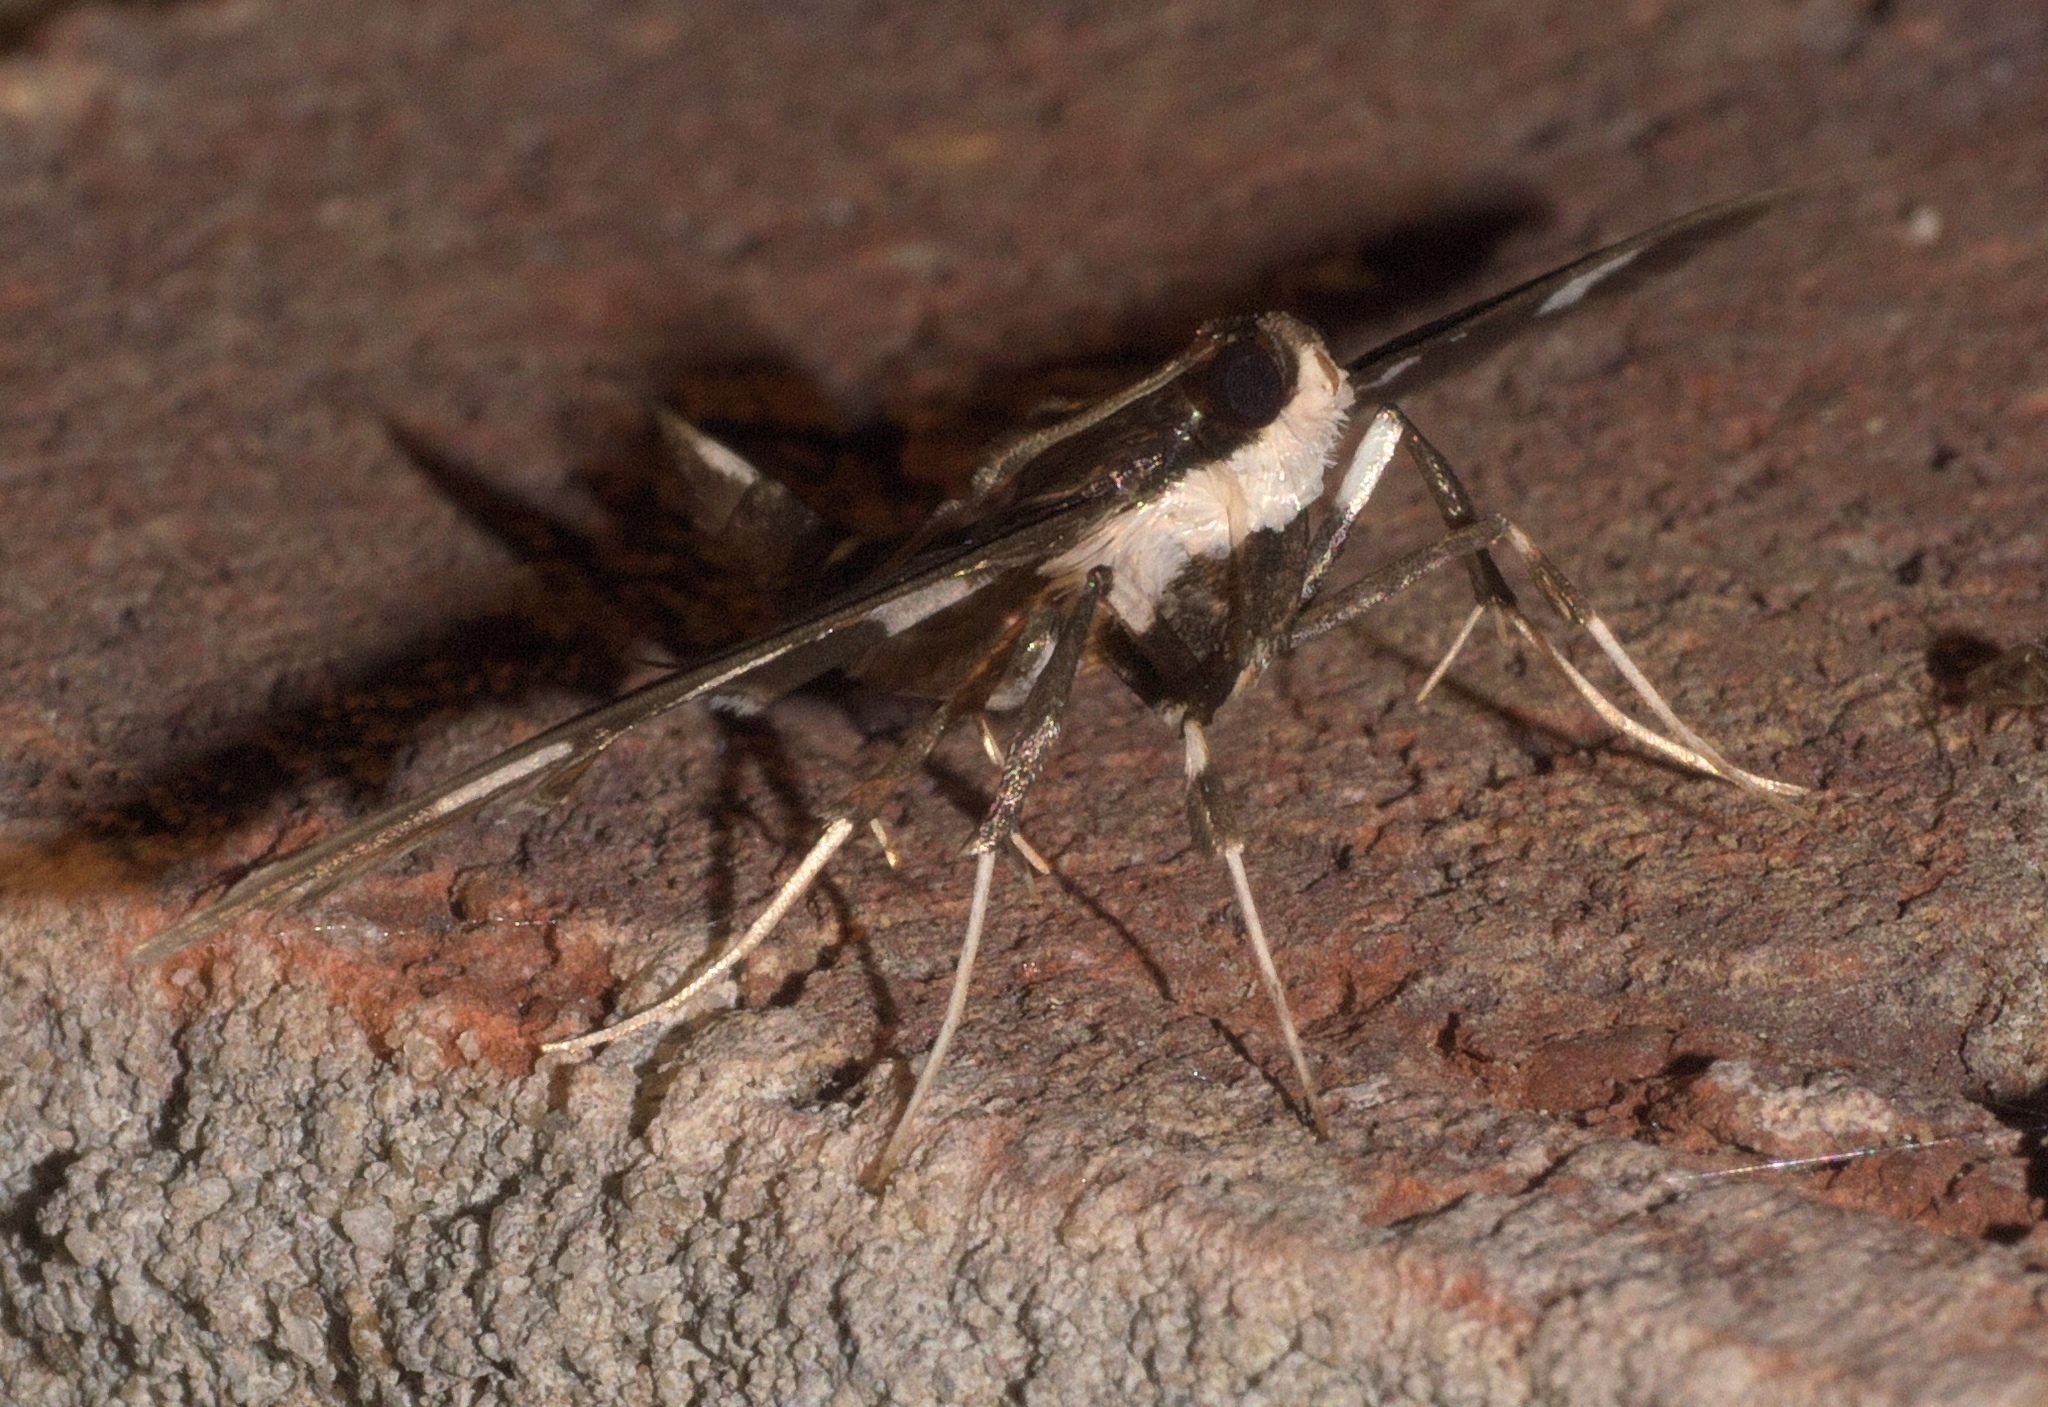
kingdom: Animalia
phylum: Arthropoda
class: Insecta
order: Lepidoptera
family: Crambidae
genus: Desmia
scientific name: Desmia
